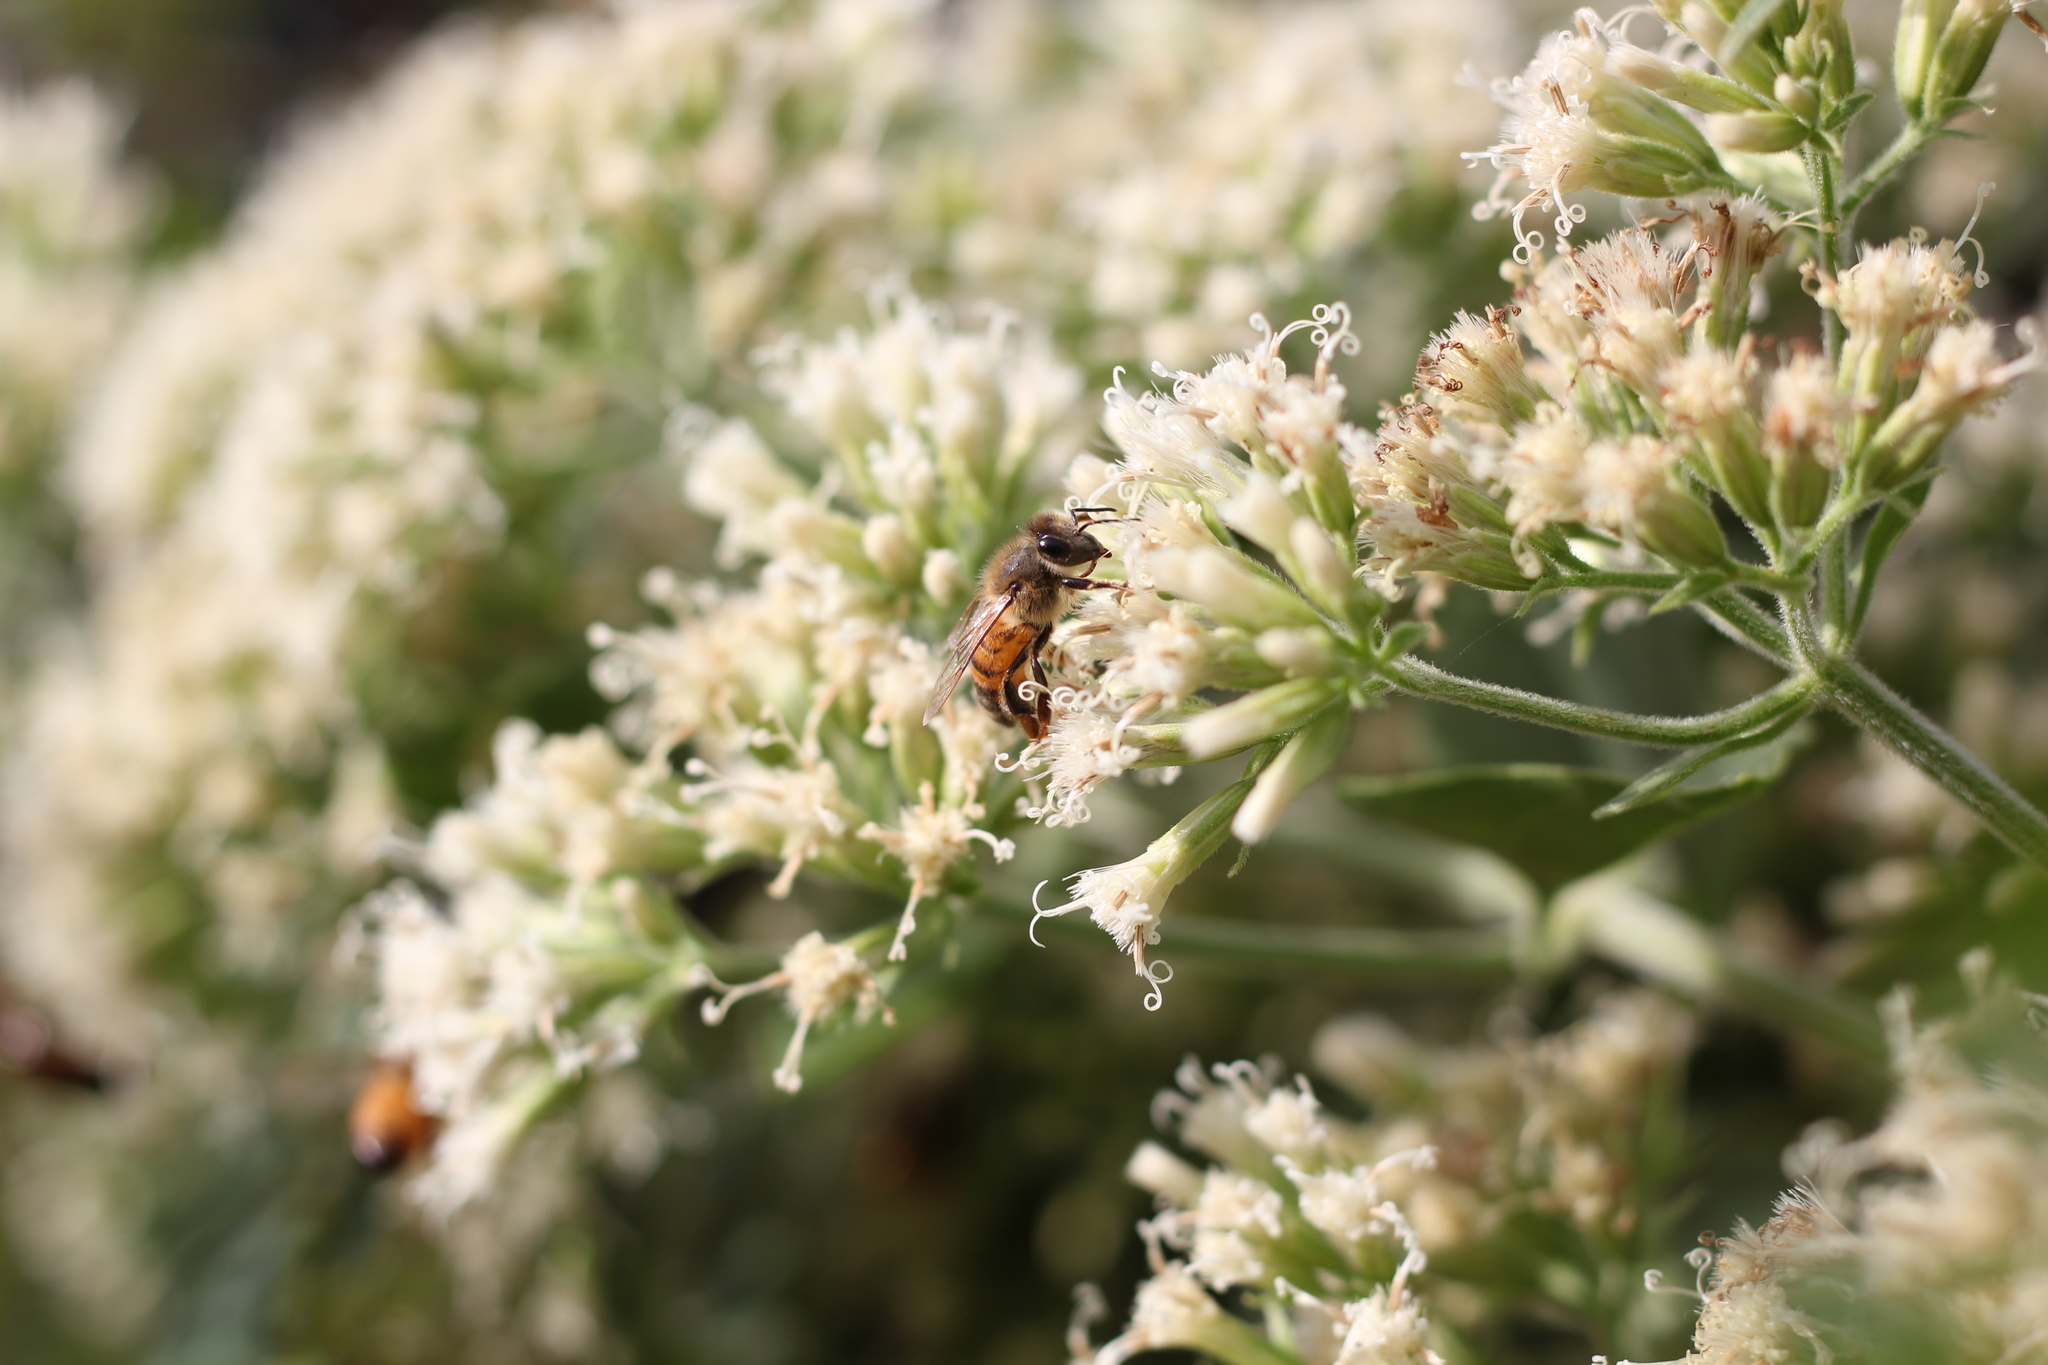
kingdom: Animalia
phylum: Arthropoda
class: Insecta
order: Hymenoptera
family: Apidae
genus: Apis
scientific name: Apis mellifera
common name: Honey bee
